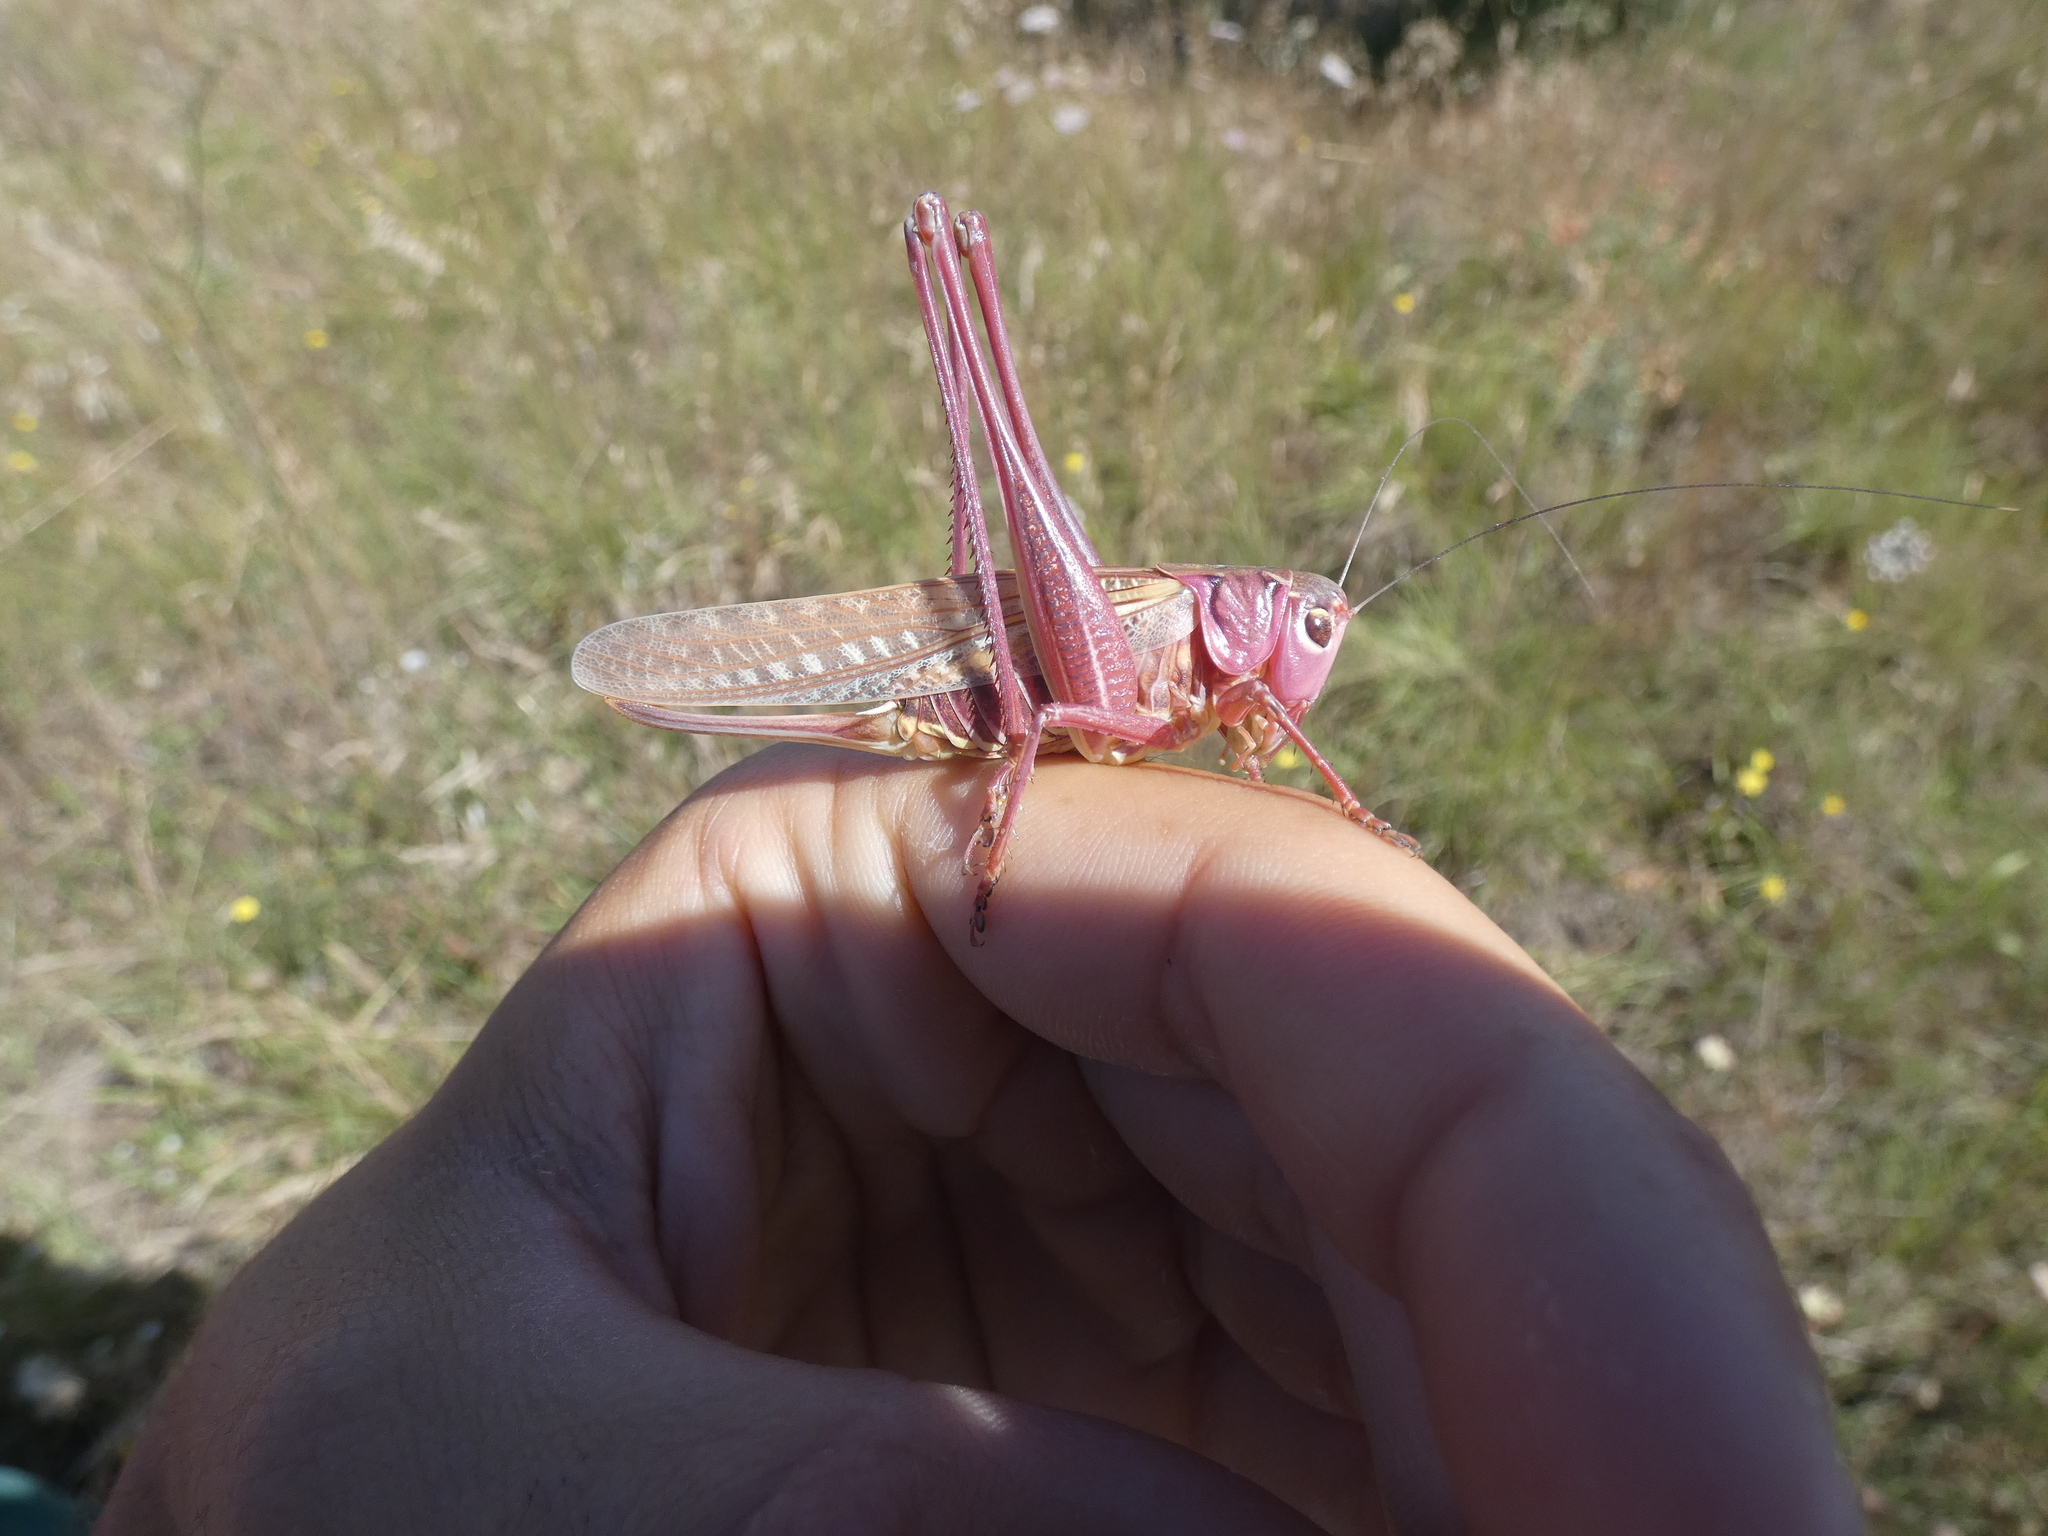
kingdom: Animalia
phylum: Arthropoda
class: Insecta
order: Orthoptera
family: Tettigoniidae
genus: Decticus
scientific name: Decticus albifrons
